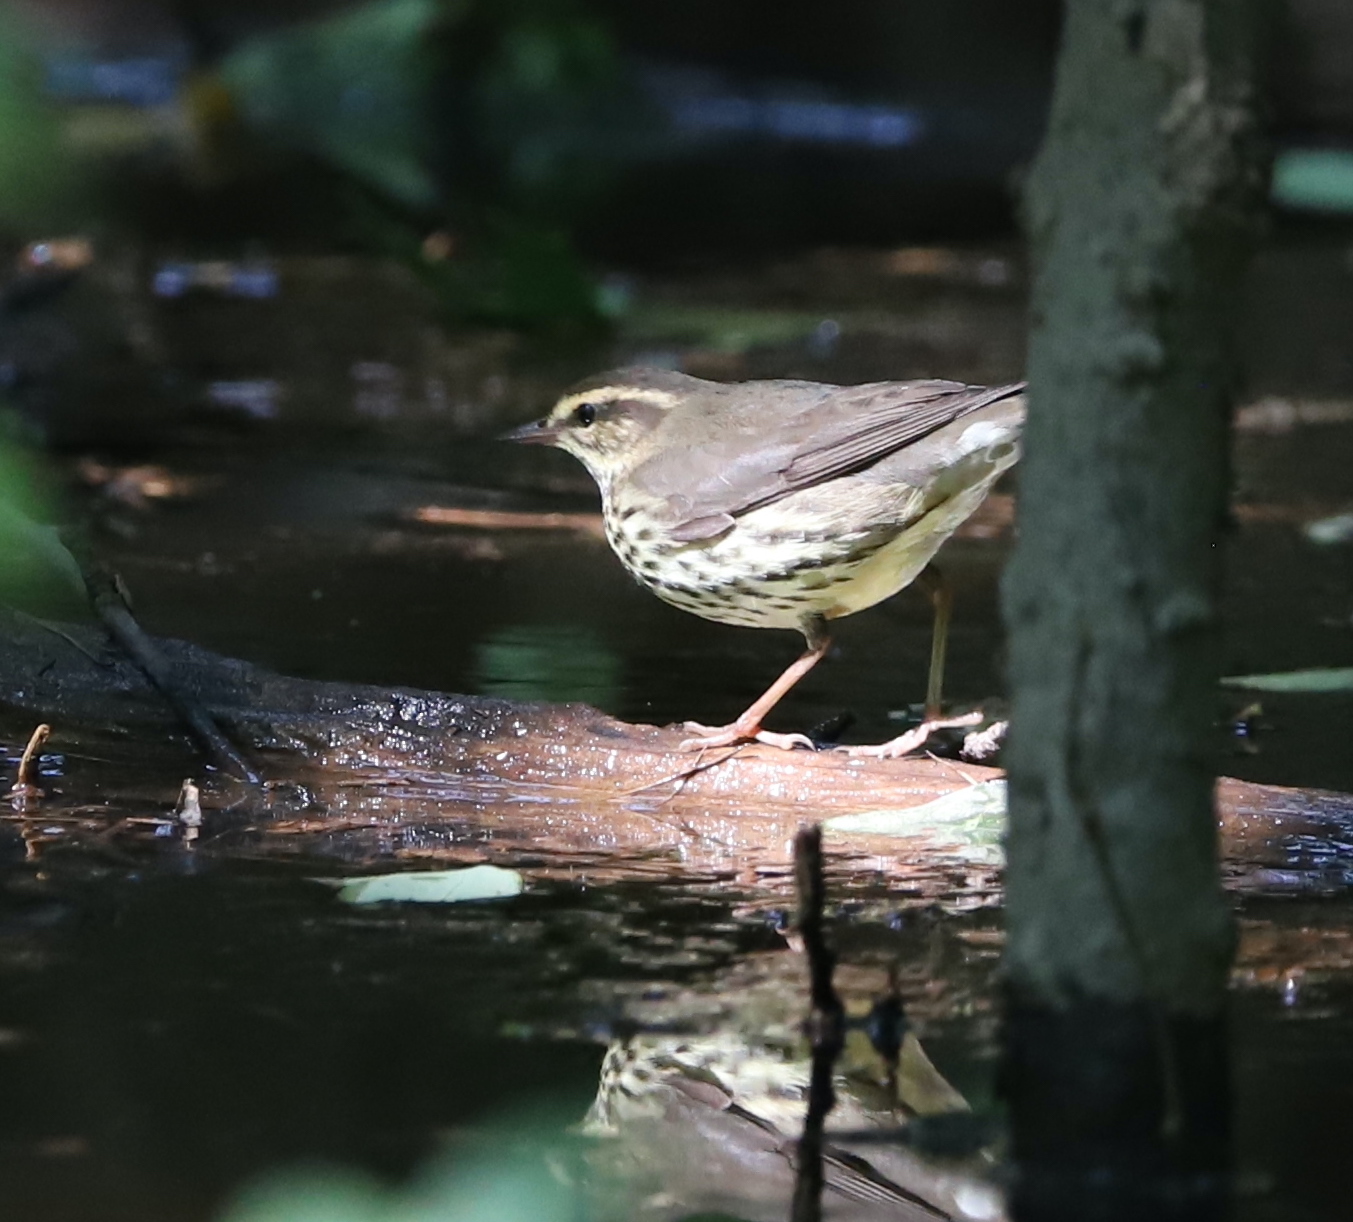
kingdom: Animalia
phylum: Chordata
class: Aves
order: Passeriformes
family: Parulidae
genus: Parkesia
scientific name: Parkesia noveboracensis
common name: Northern waterthrush
